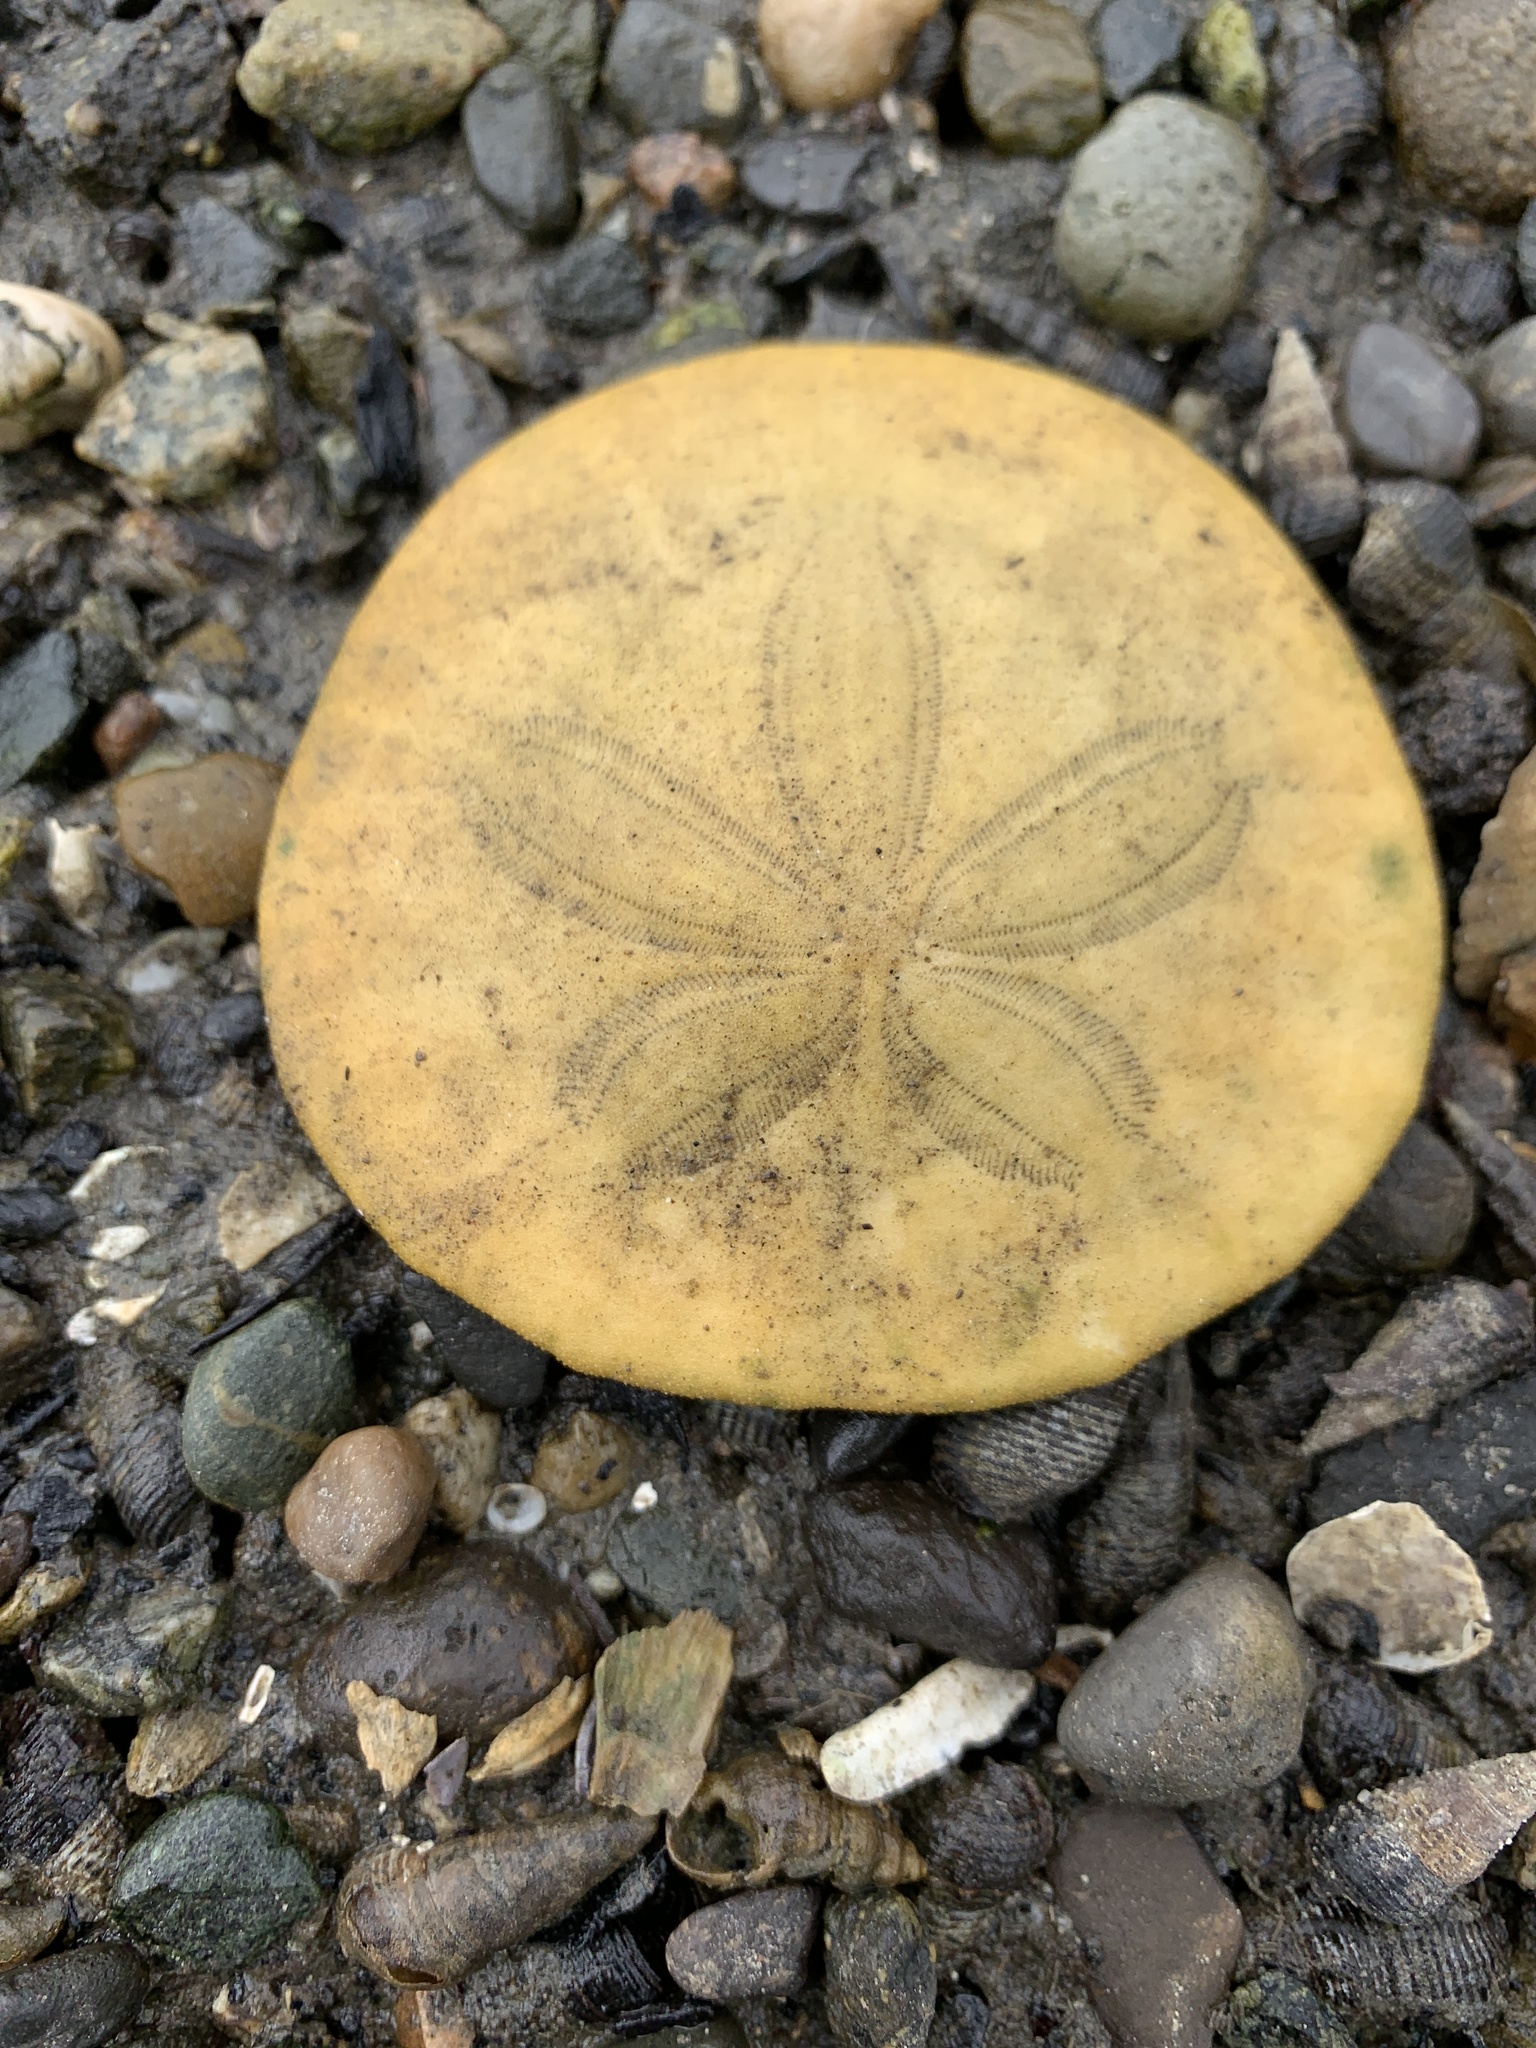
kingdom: Animalia
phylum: Echinodermata
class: Echinoidea
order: Echinolampadacea
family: Dendrasteridae
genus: Dendraster
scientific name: Dendraster excentricus
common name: Eccentric sand dollar sea urchin
